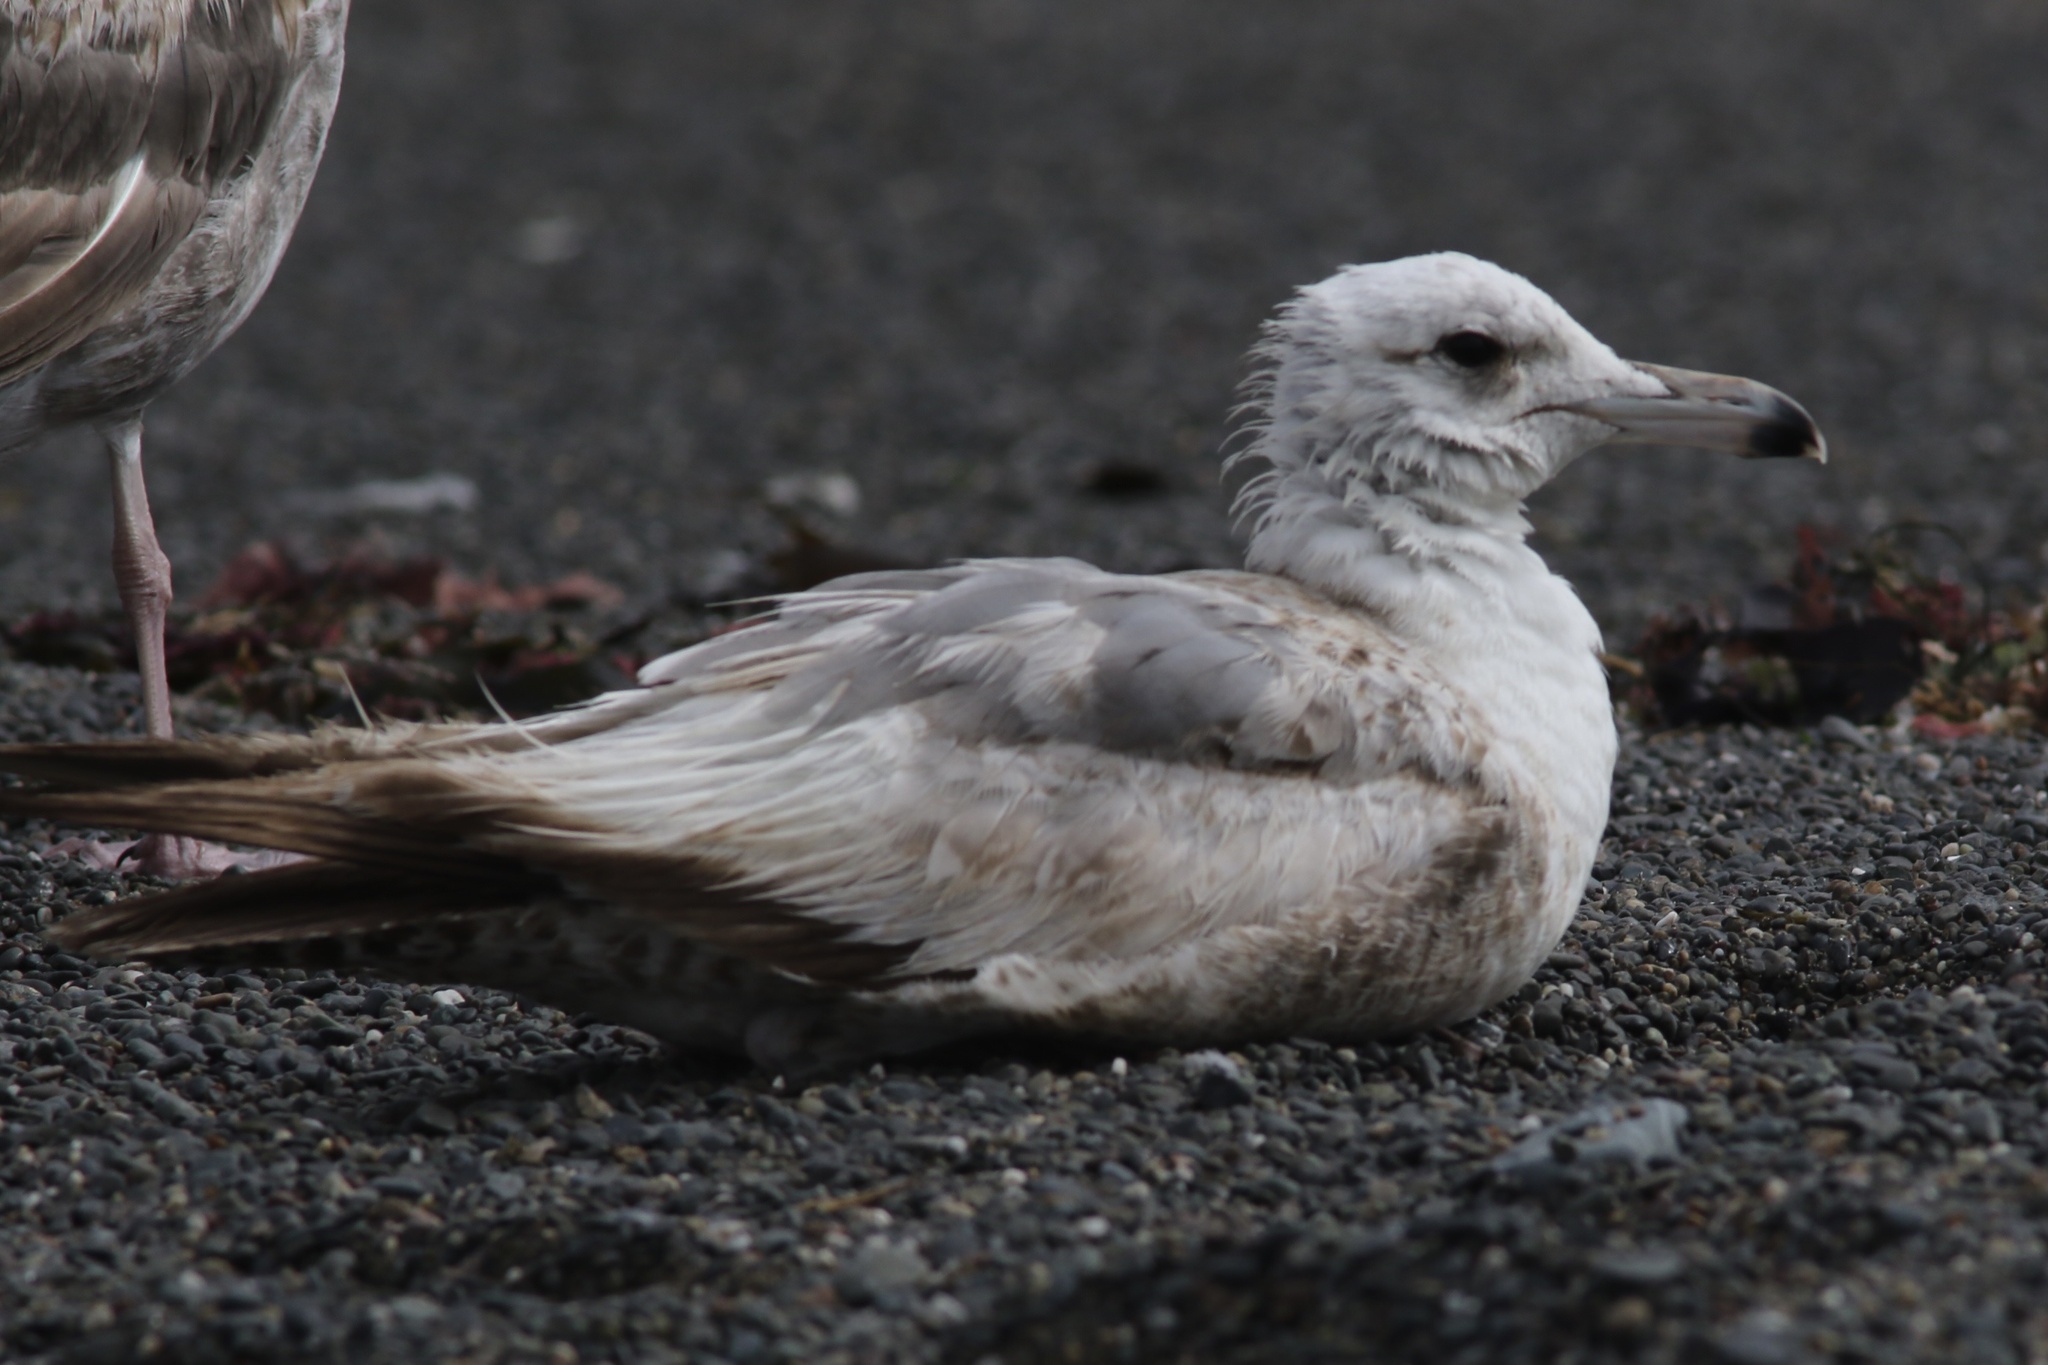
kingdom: Animalia
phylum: Chordata
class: Aves
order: Charadriiformes
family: Laridae
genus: Larus
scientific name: Larus californicus
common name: California gull
